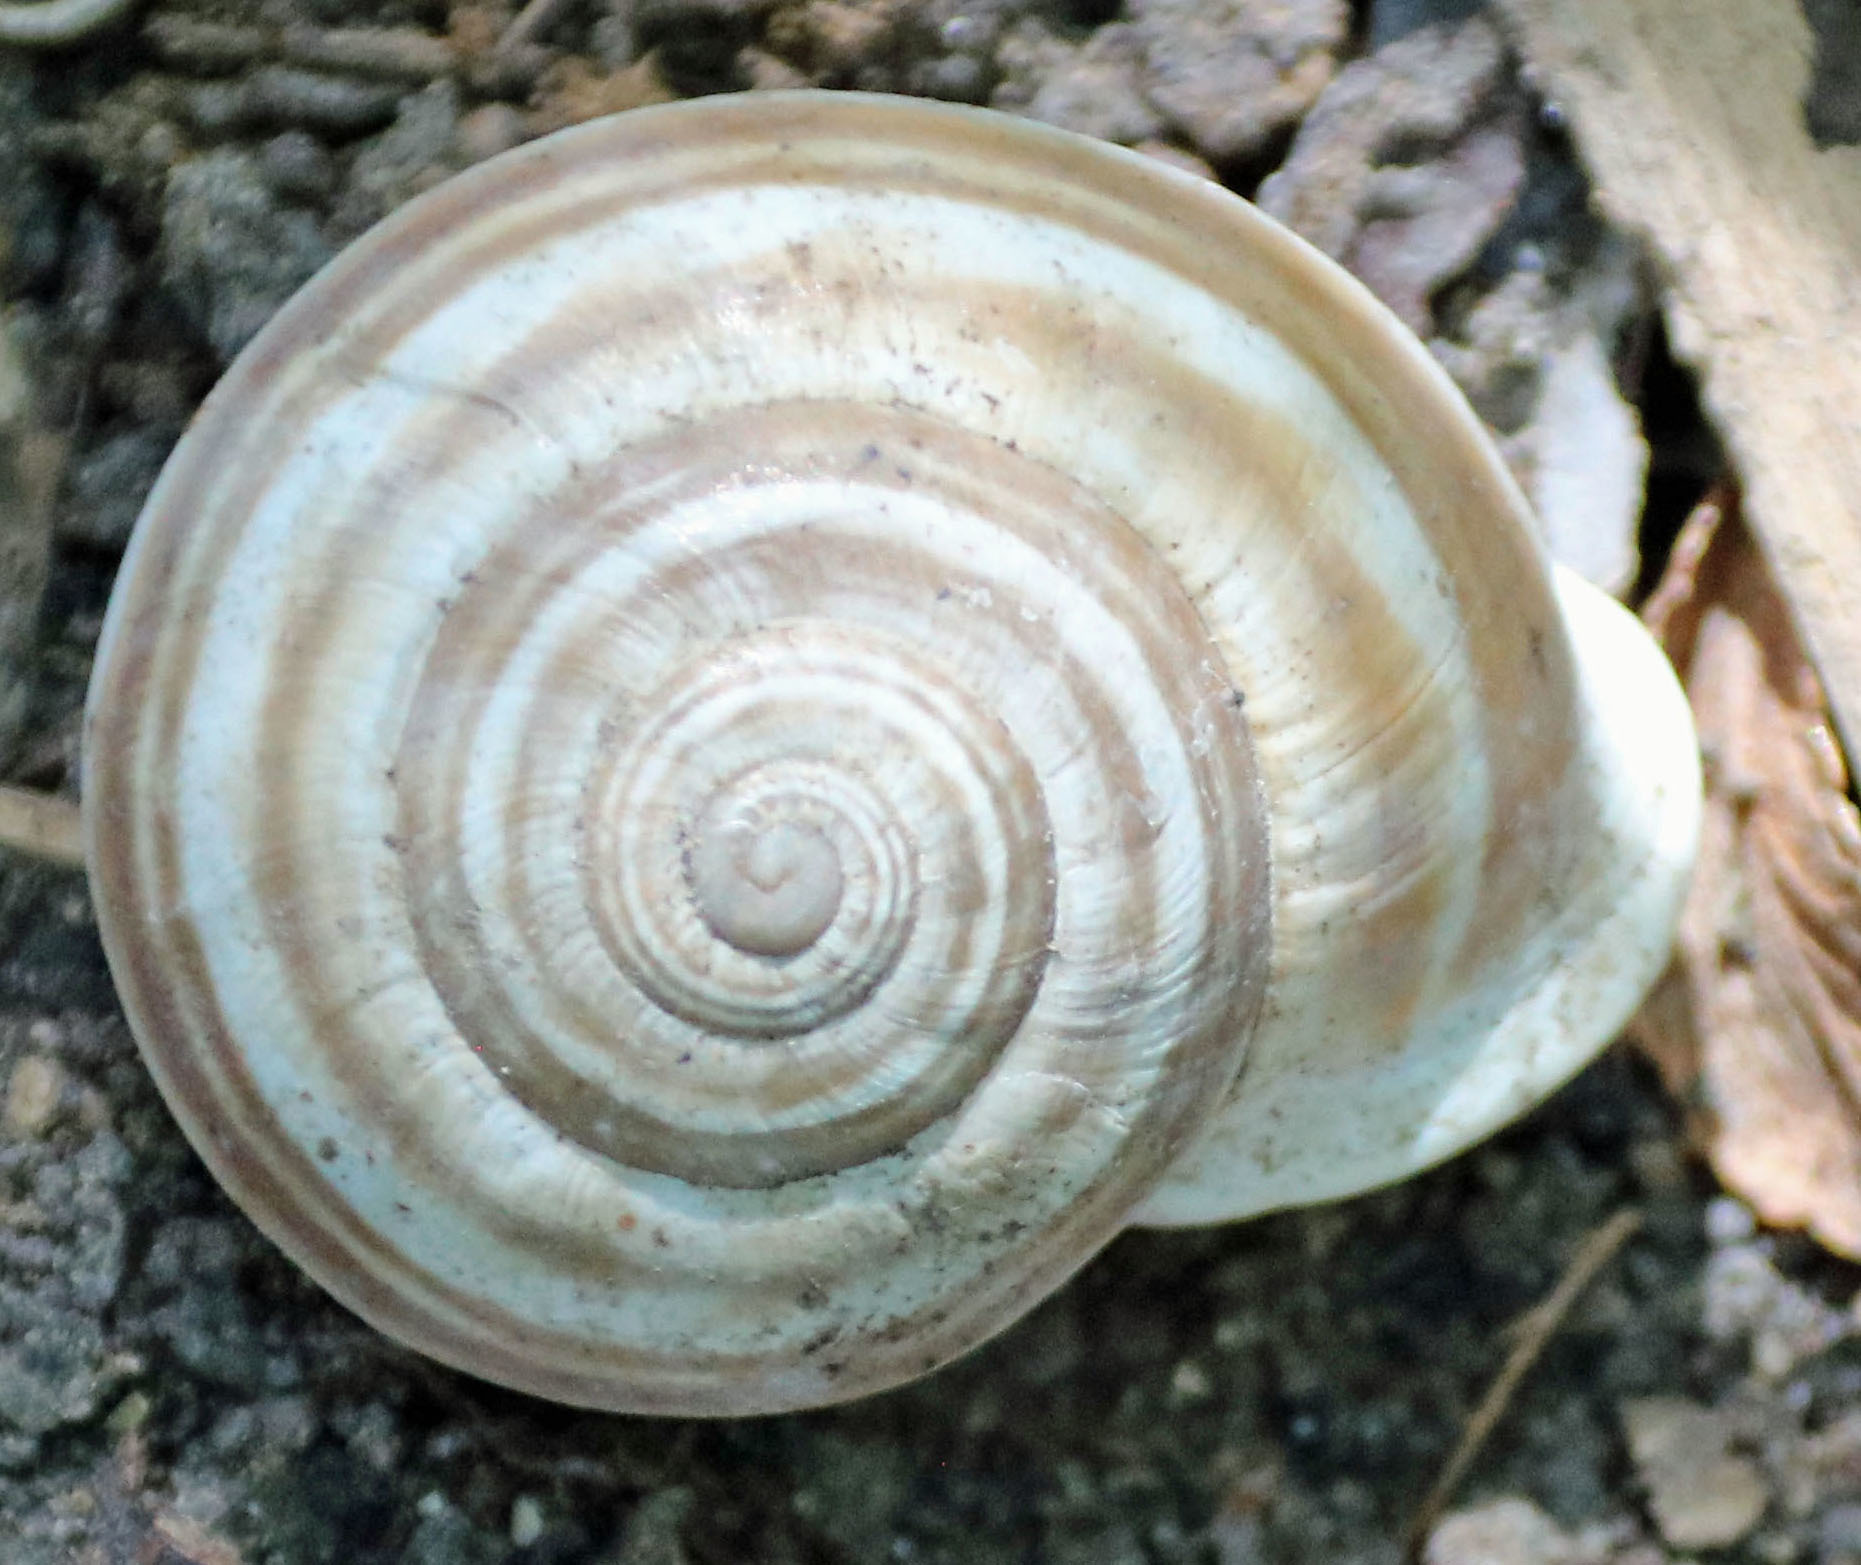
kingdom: Animalia
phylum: Mollusca
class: Gastropoda
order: Stylommatophora
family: Helicidae
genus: Otala
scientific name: Otala lactea
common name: Milk snail
